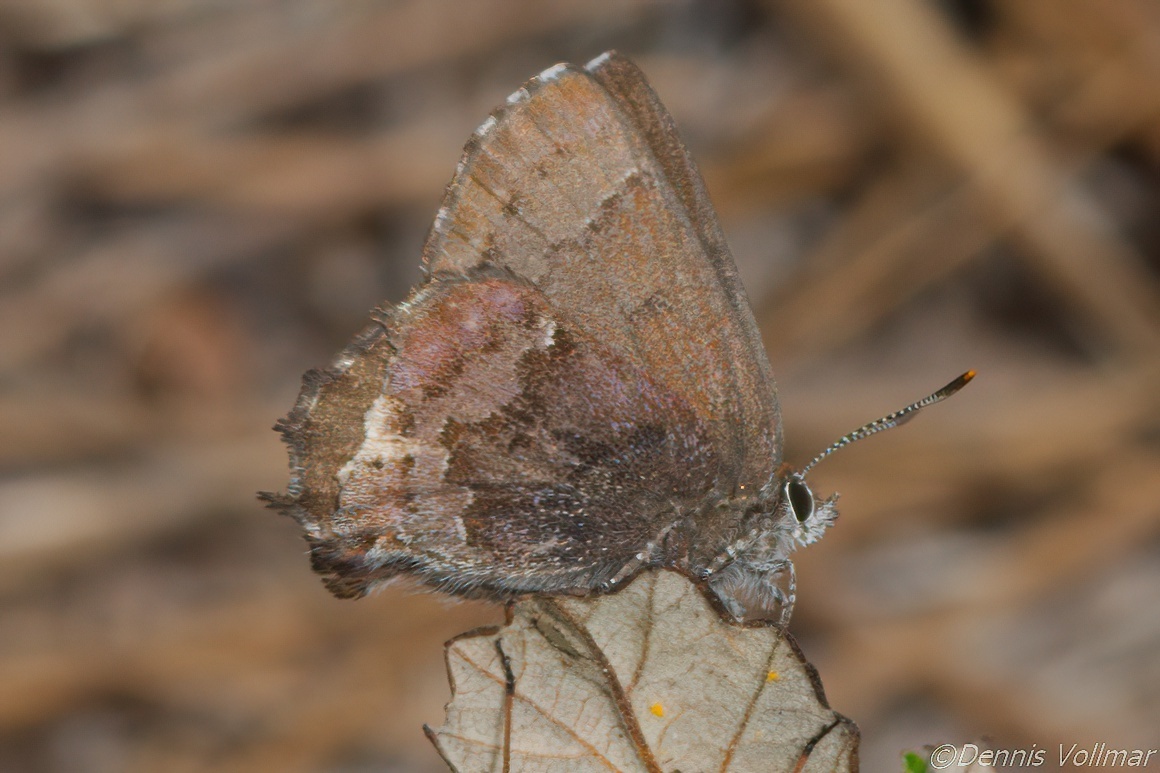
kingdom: Animalia
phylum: Arthropoda
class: Insecta
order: Lepidoptera
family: Lycaenidae
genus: Thecla
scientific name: Thecla irus
